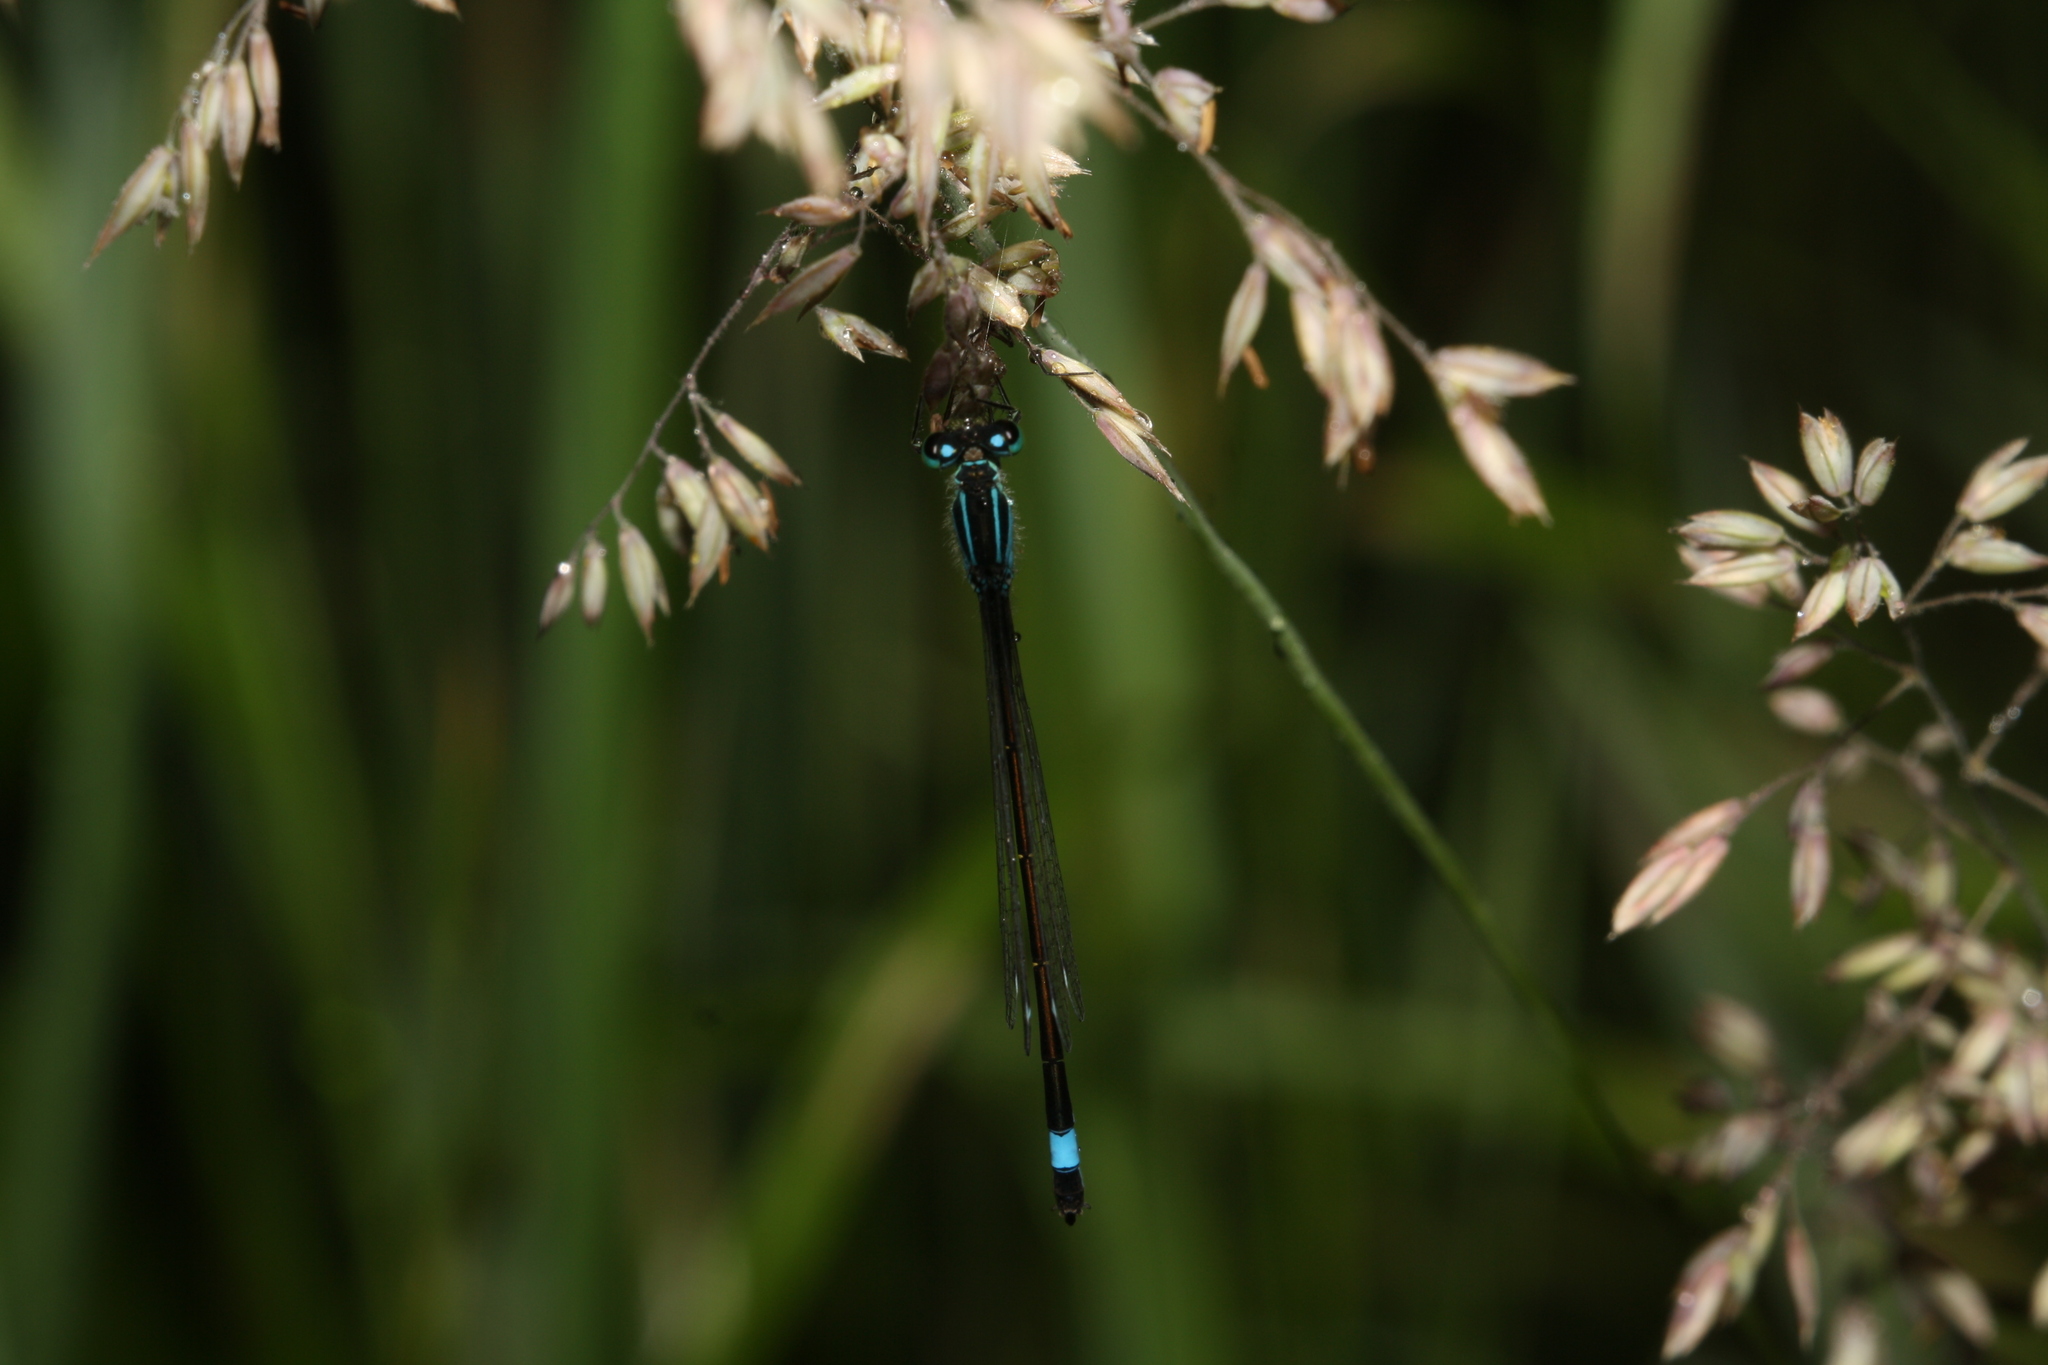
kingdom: Animalia
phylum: Arthropoda
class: Insecta
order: Odonata
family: Coenagrionidae
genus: Ischnura
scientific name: Ischnura elegans
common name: Blue-tailed damselfly
